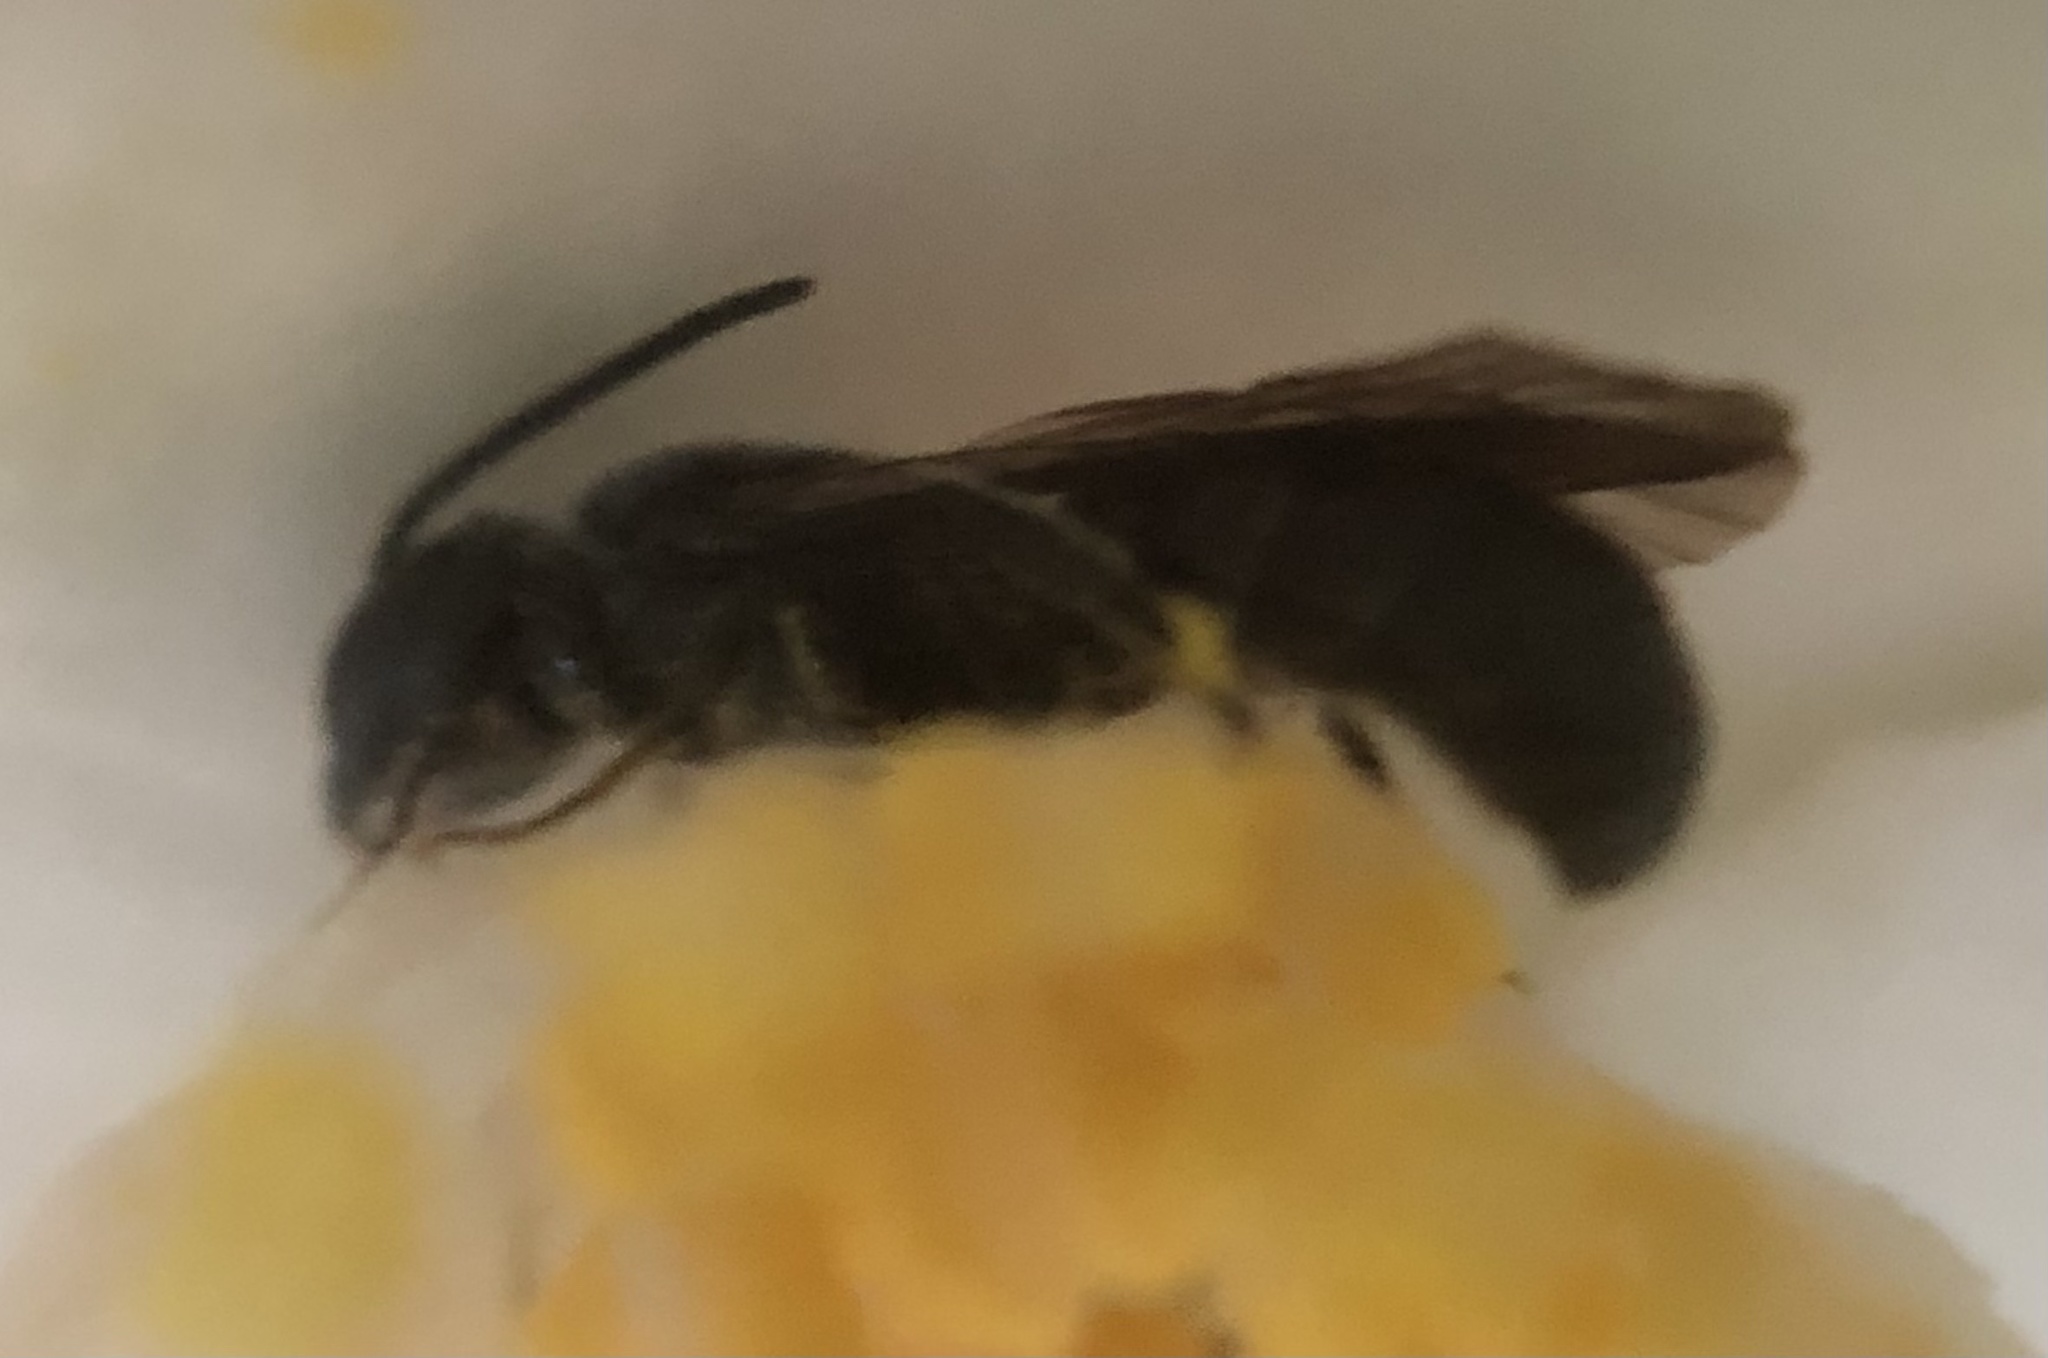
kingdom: Animalia
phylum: Arthropoda
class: Insecta
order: Hymenoptera
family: Megachilidae
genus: Chelostoma
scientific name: Chelostoma philadelphi
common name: Mock-orange scissor bee
